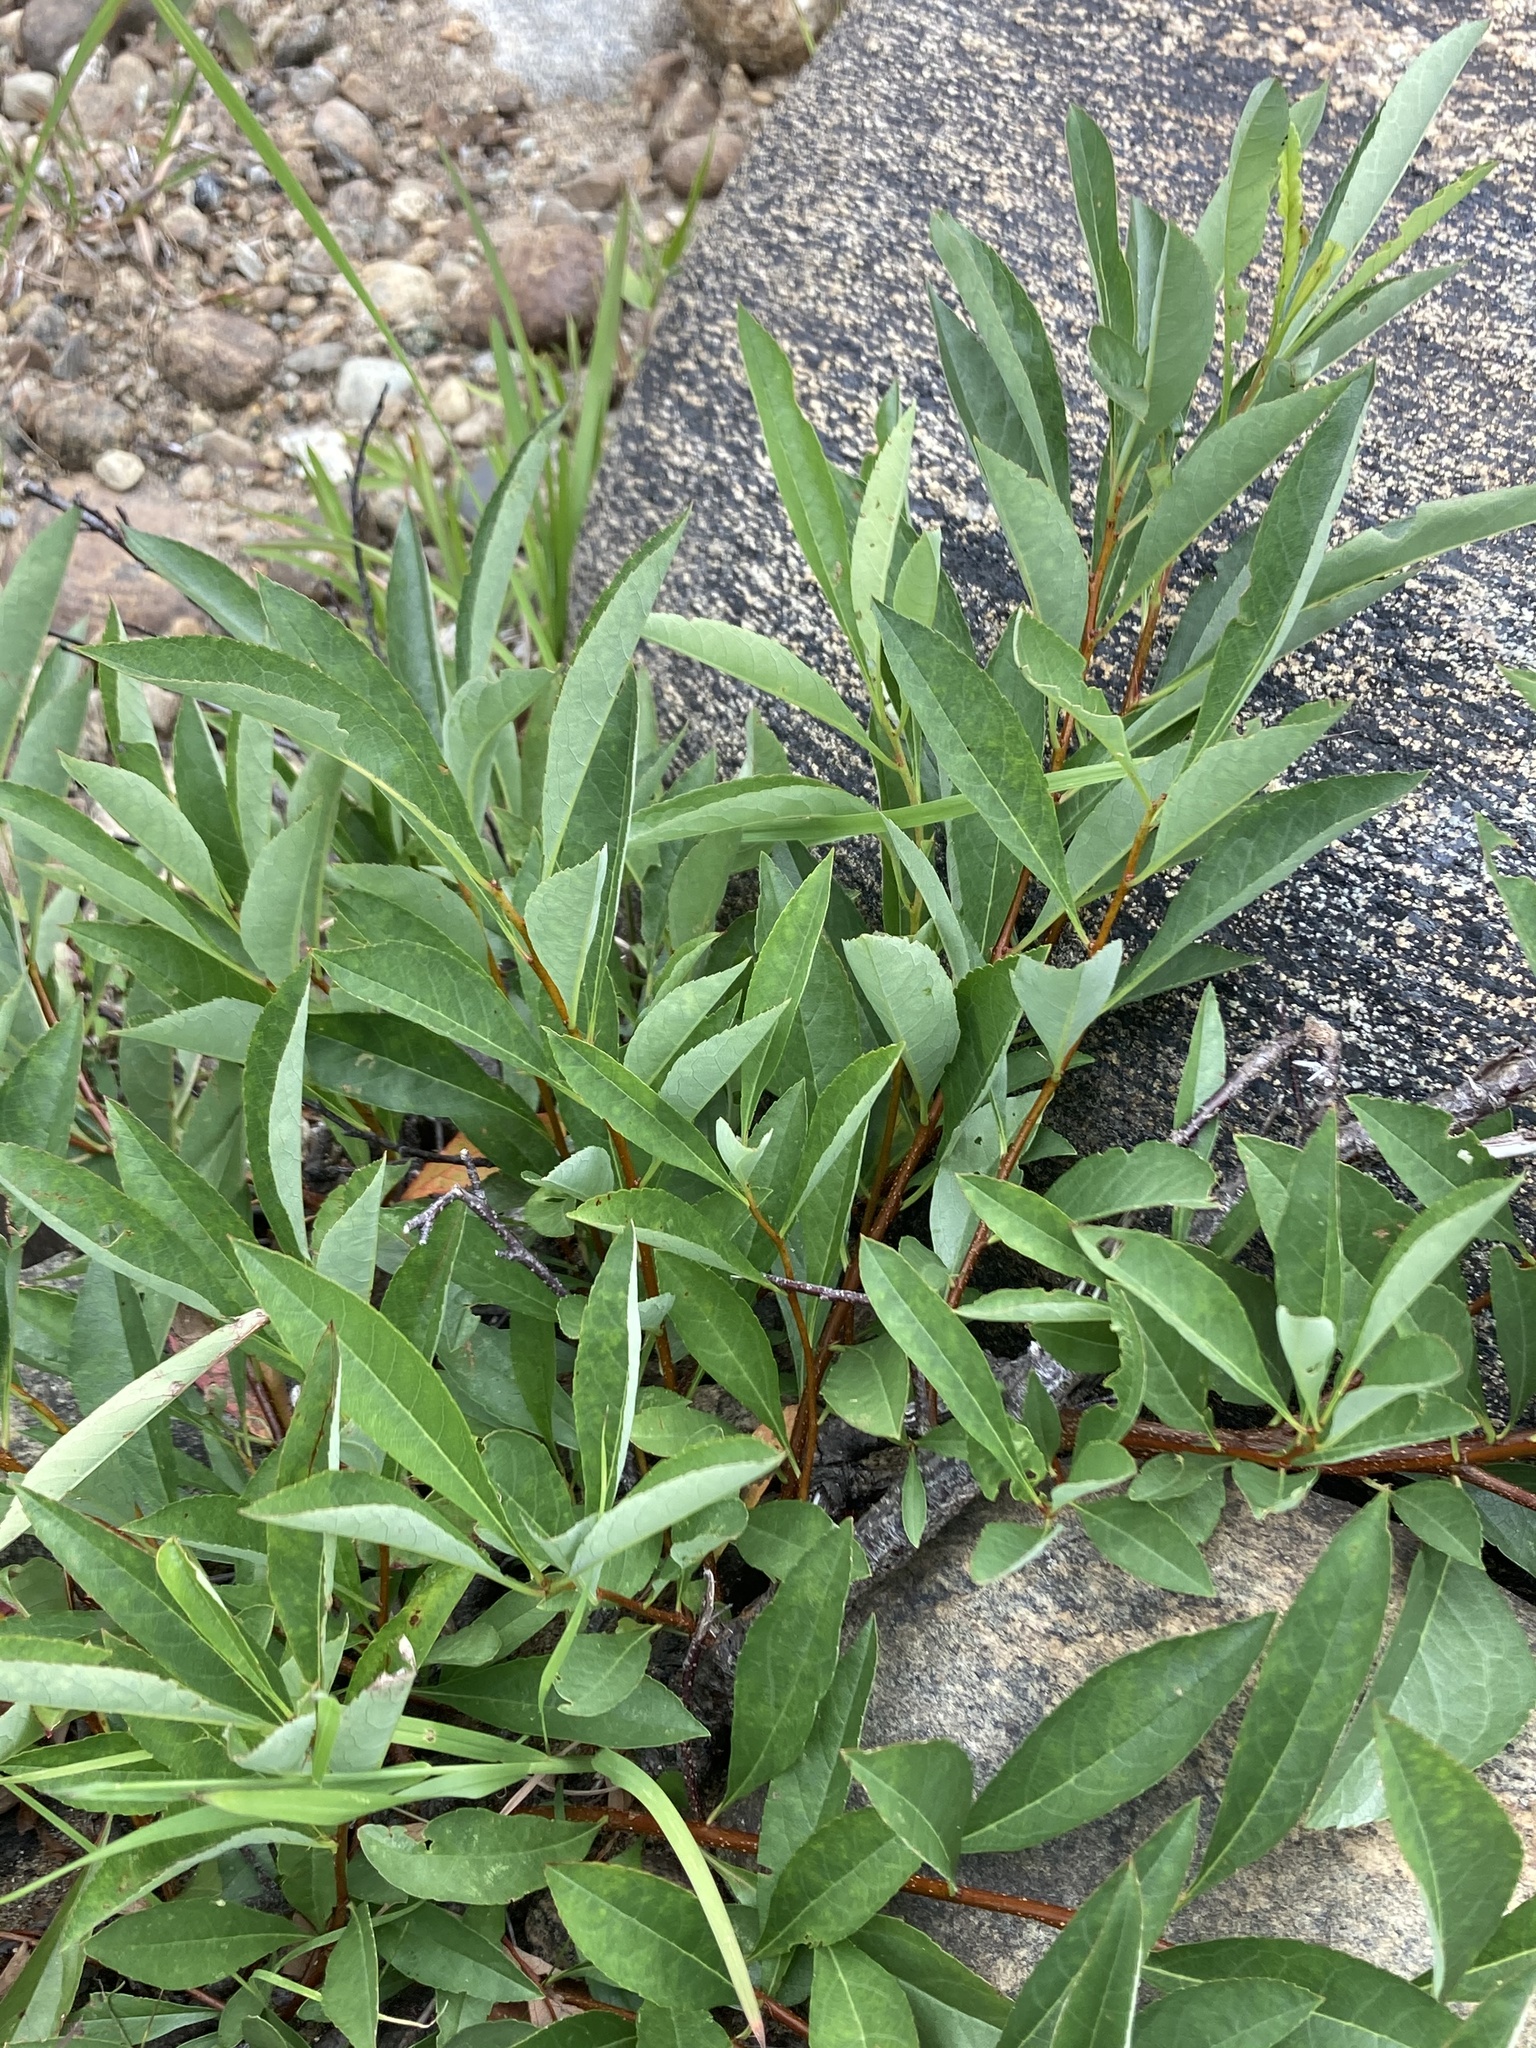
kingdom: Plantae
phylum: Tracheophyta
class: Magnoliopsida
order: Rosales
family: Rosaceae
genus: Prunus
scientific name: Prunus pumila
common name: Dwarf cherry
